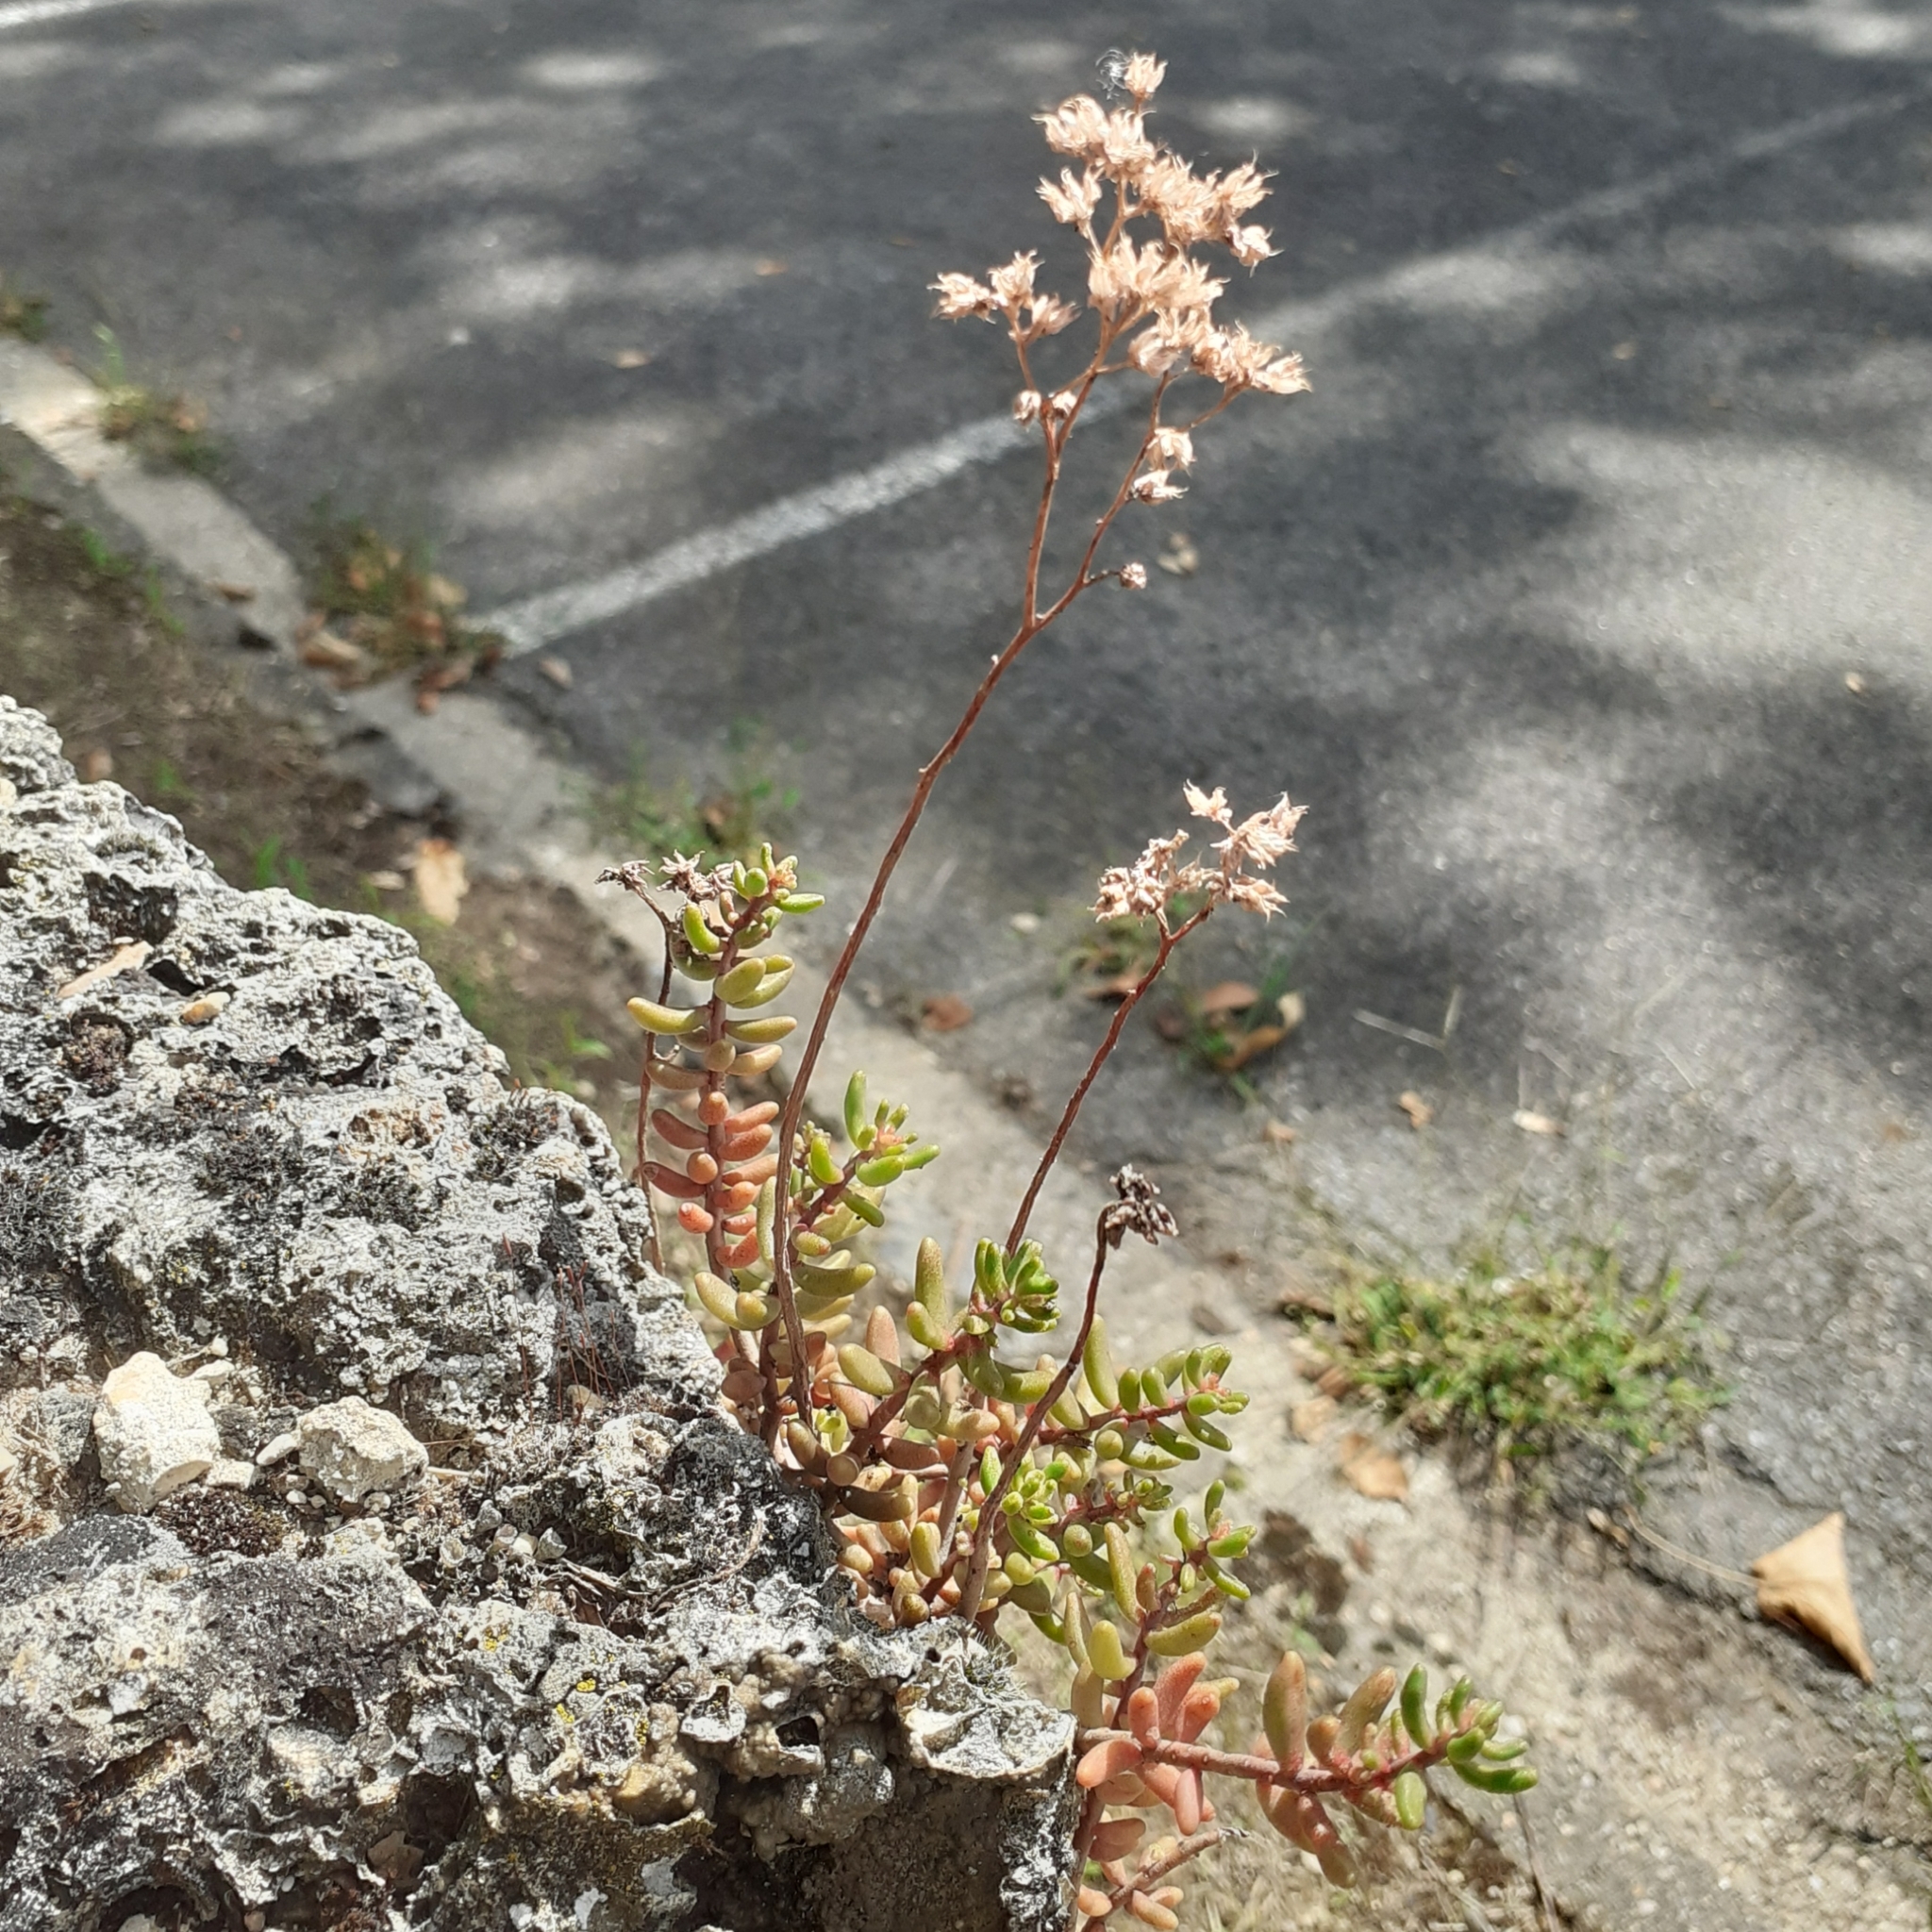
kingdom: Plantae
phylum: Tracheophyta
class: Magnoliopsida
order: Saxifragales
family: Crassulaceae
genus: Sedum
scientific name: Sedum album
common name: White stonecrop
